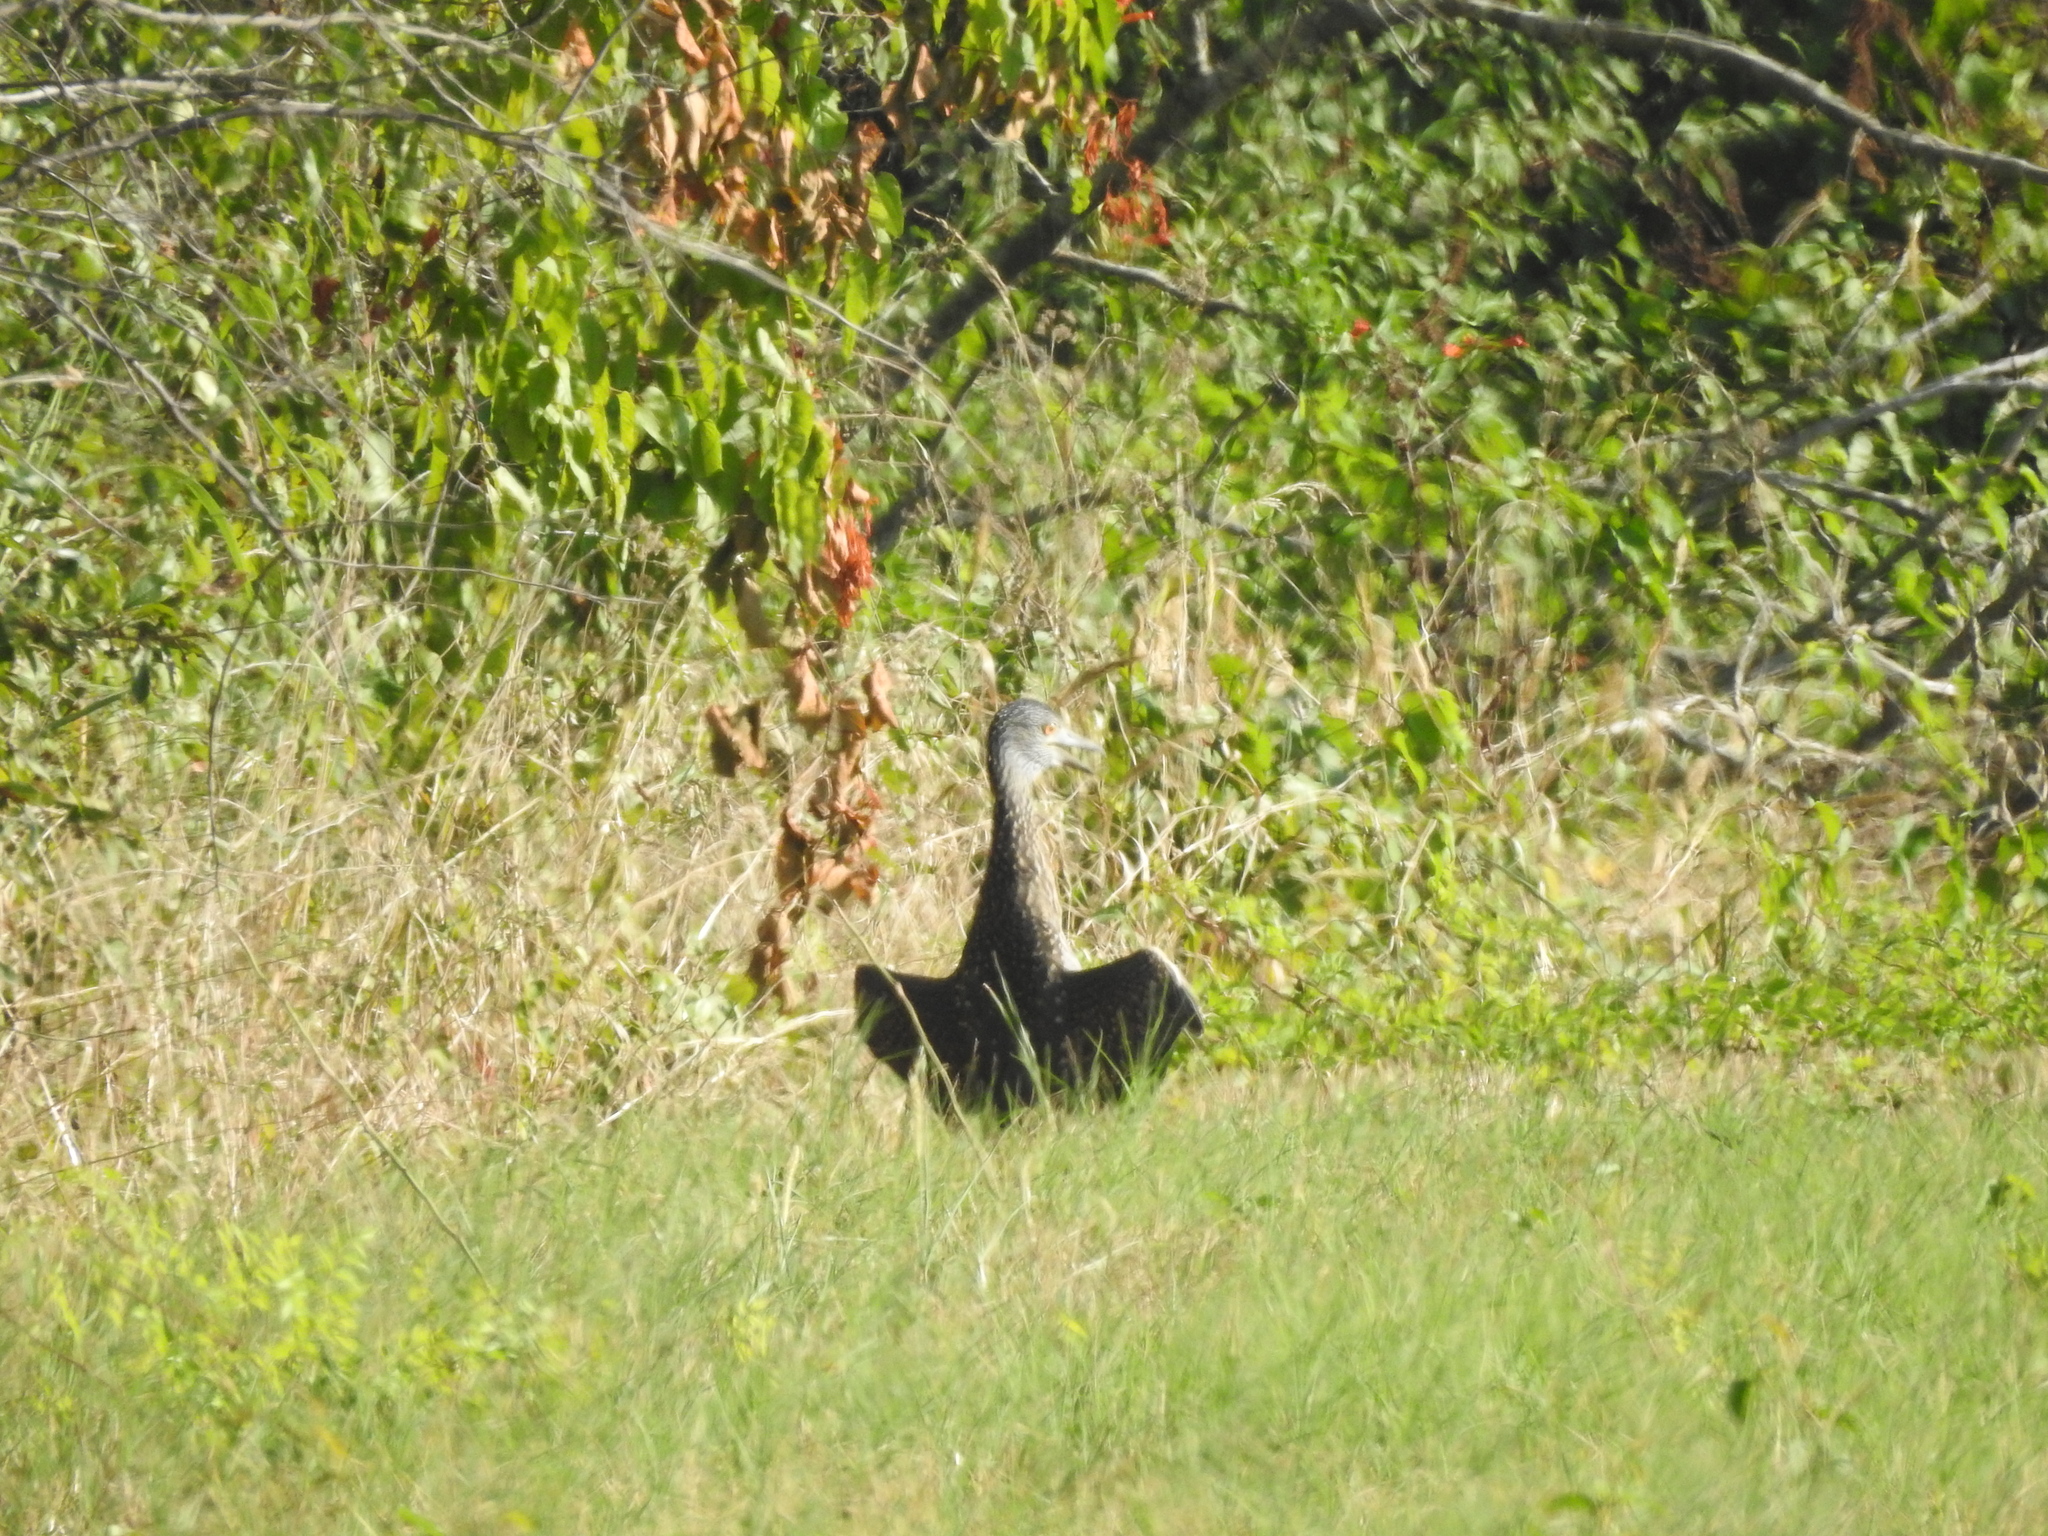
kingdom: Animalia
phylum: Chordata
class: Aves
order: Pelecaniformes
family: Ardeidae
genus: Nyctanassa
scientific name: Nyctanassa violacea
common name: Yellow-crowned night heron
